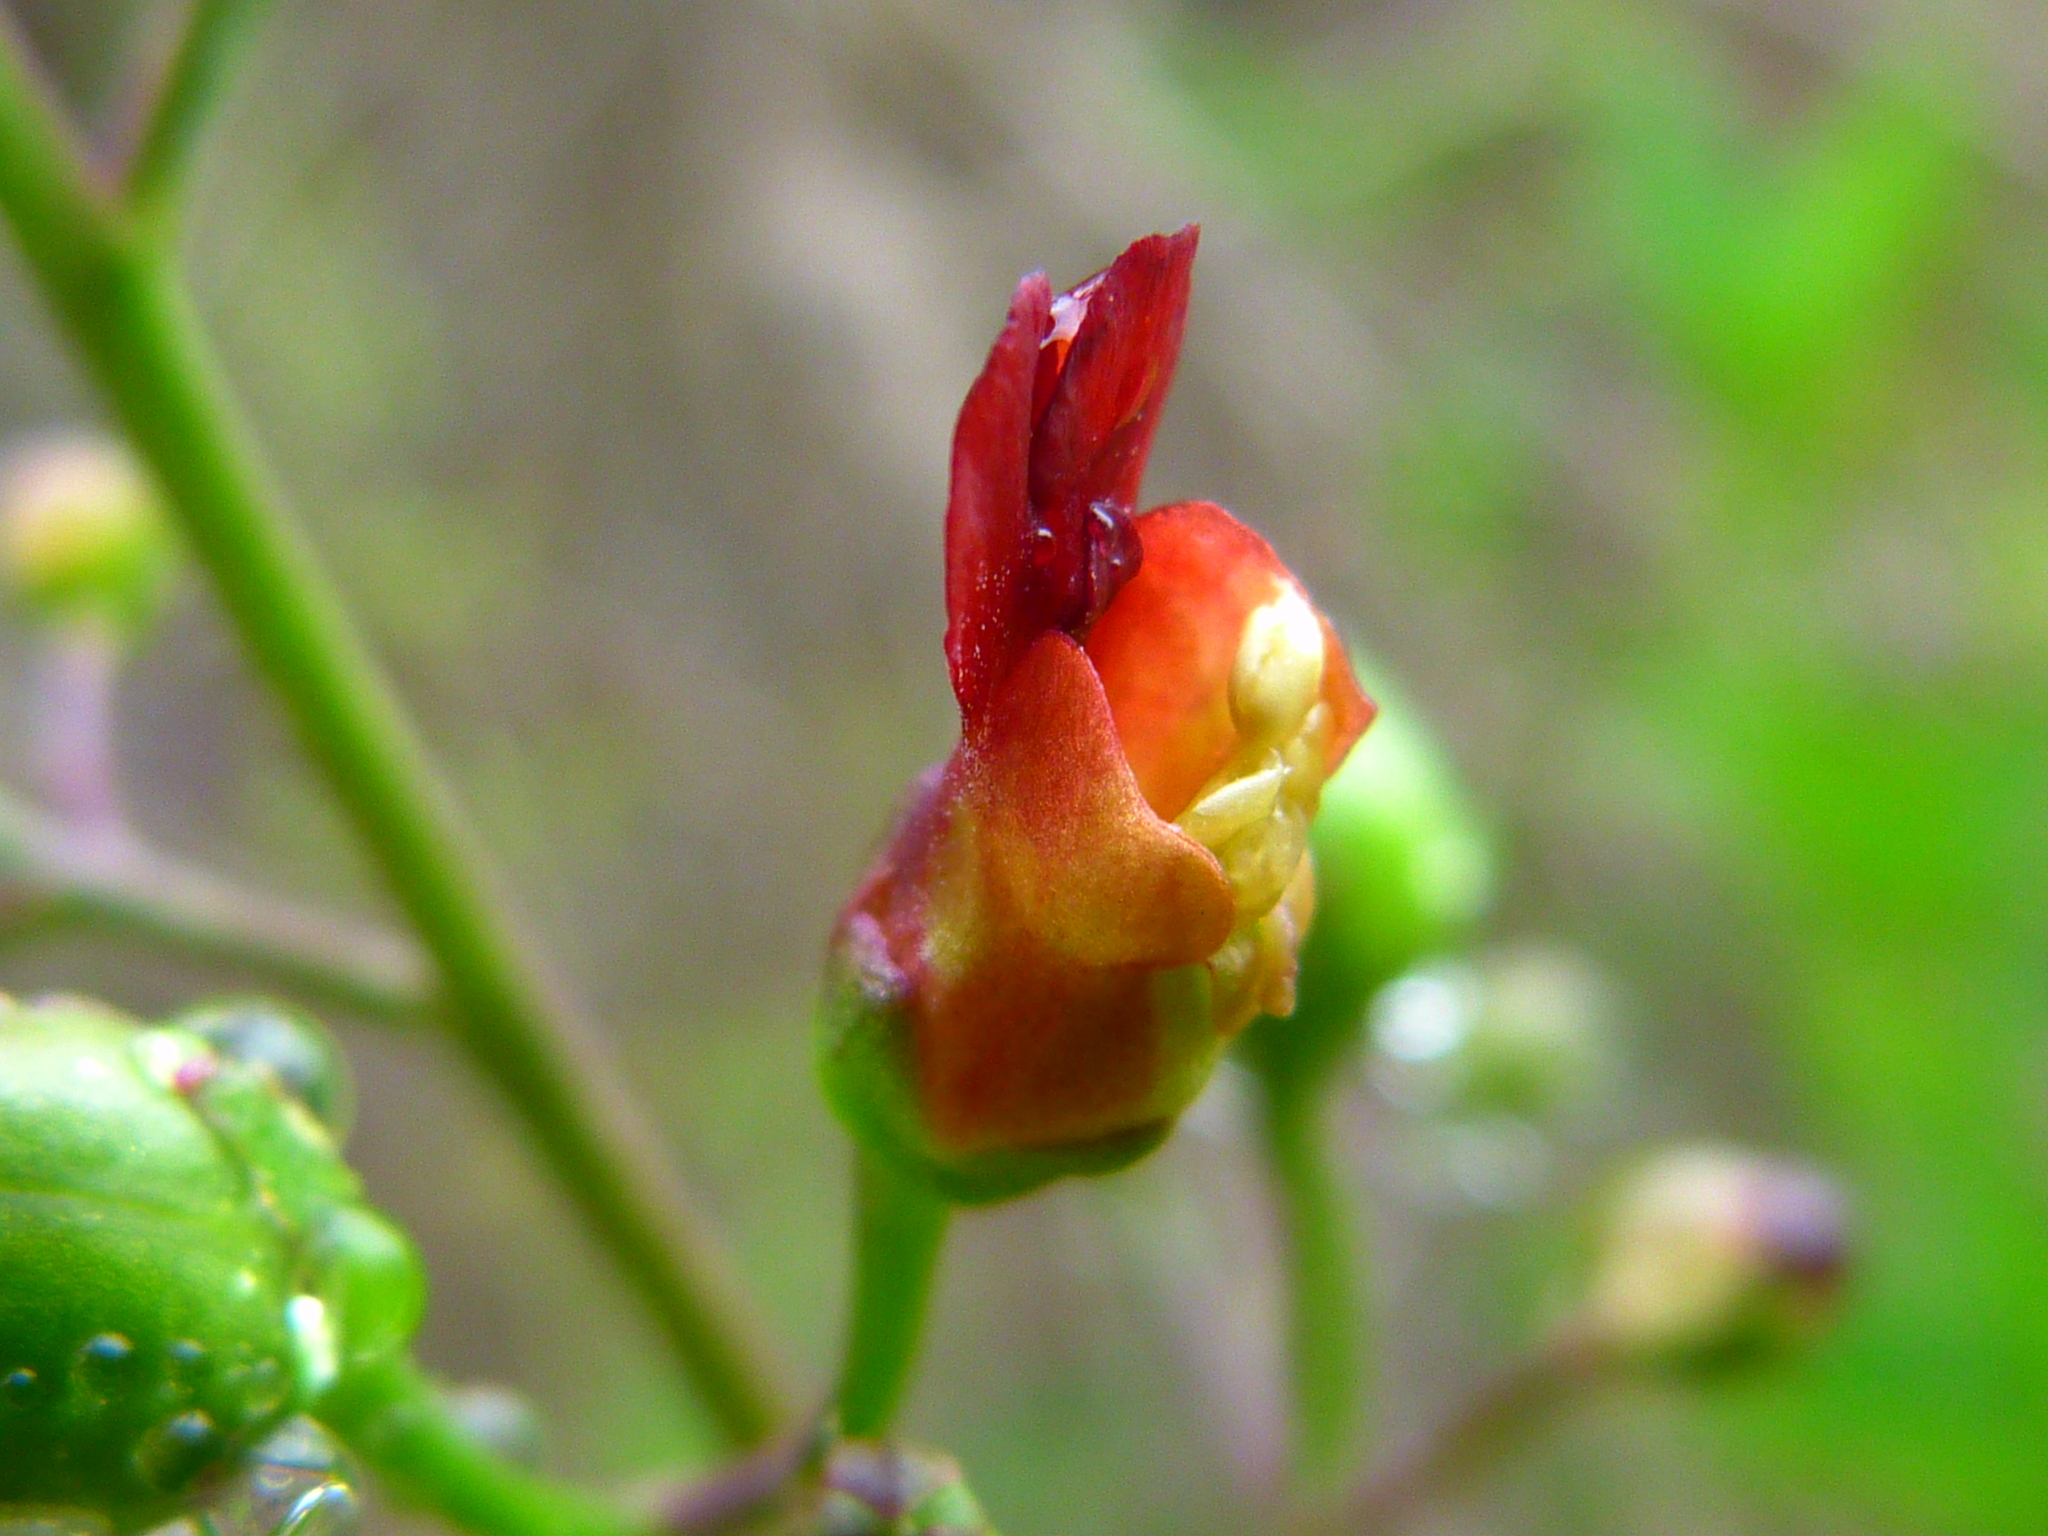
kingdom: Plantae
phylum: Tracheophyta
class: Magnoliopsida
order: Lamiales
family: Scrophulariaceae
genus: Scrophularia
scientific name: Scrophularia californica
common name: California figwort
